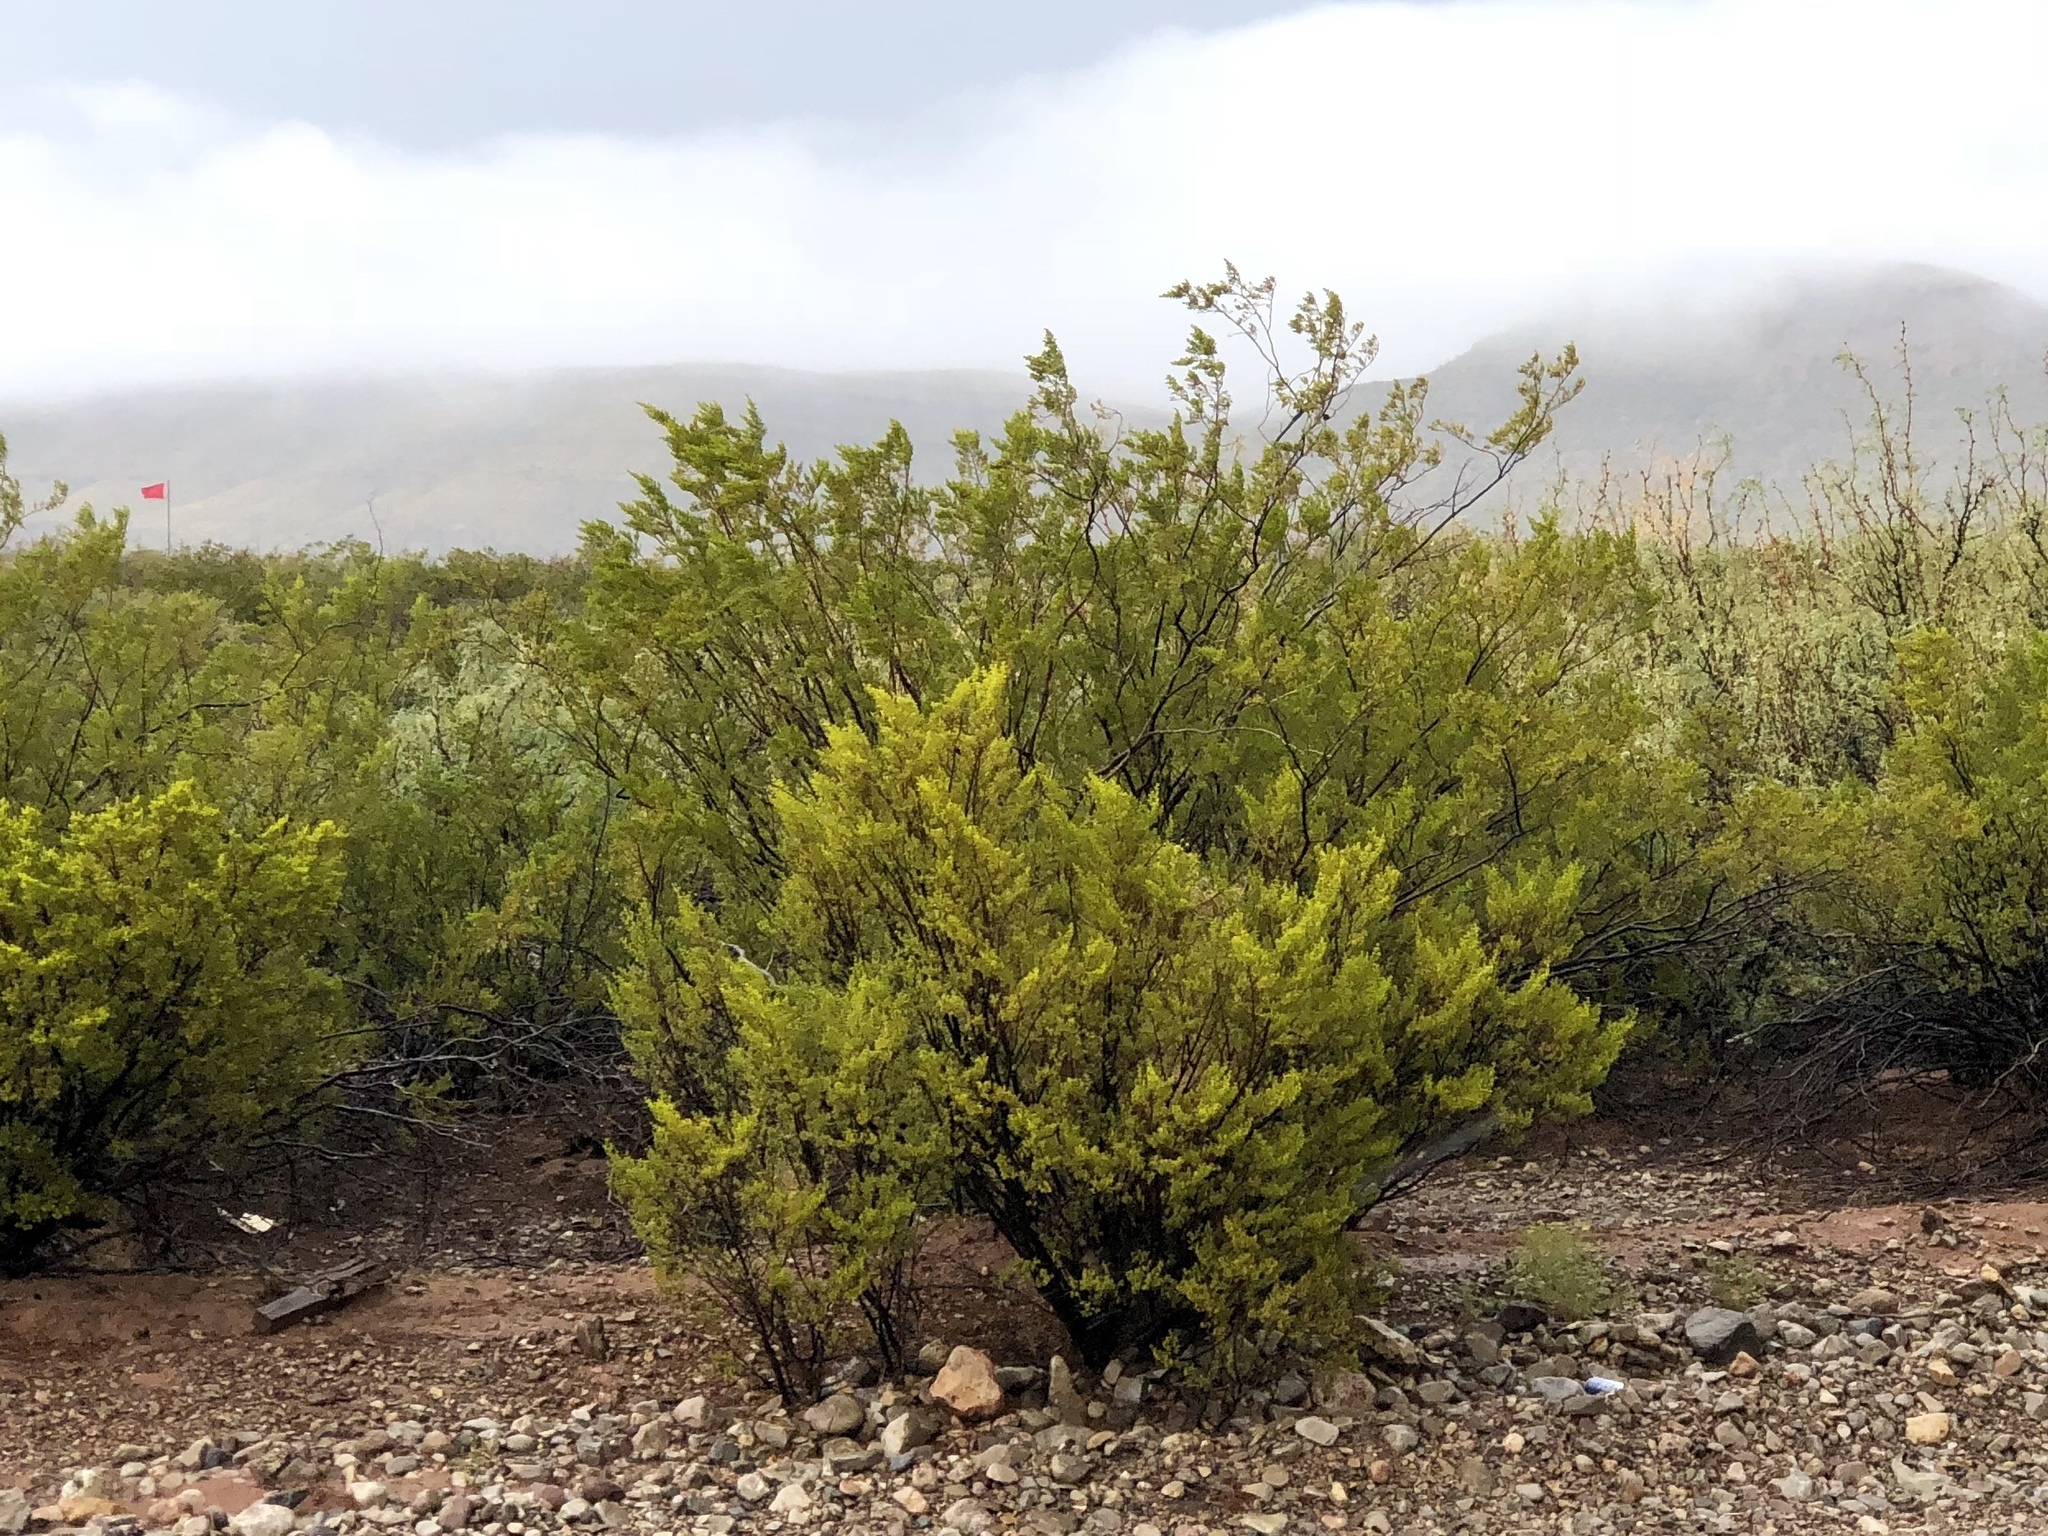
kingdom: Plantae
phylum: Tracheophyta
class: Magnoliopsida
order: Zygophyllales
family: Zygophyllaceae
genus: Larrea
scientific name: Larrea tridentata
